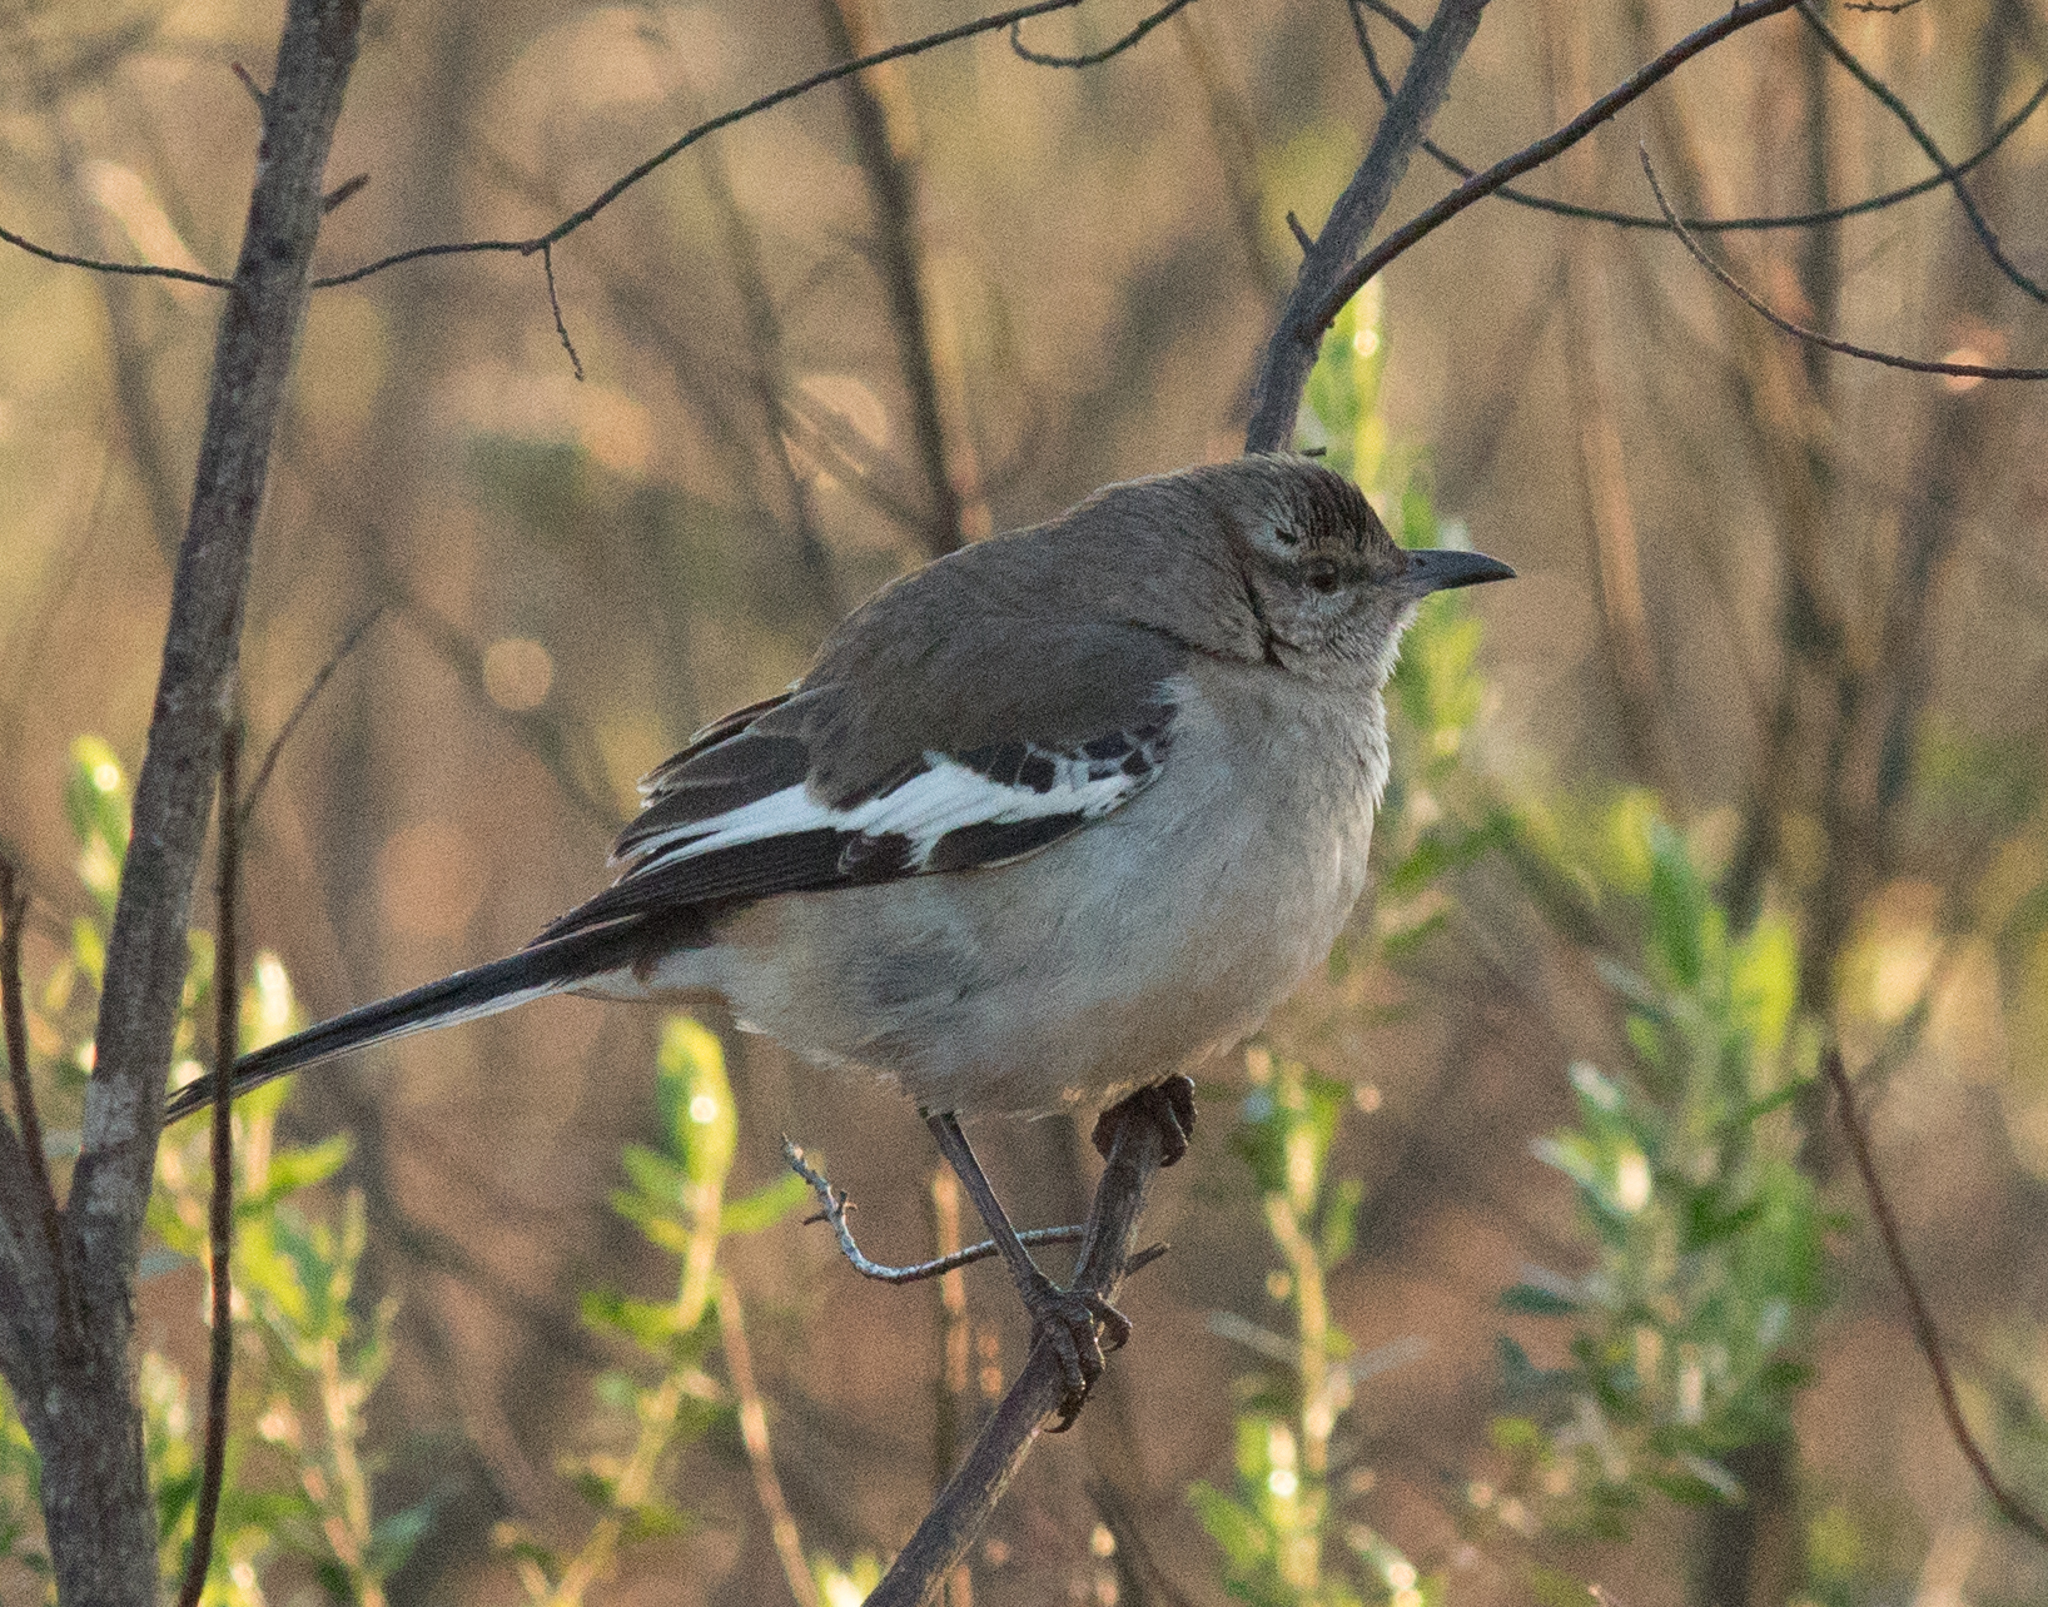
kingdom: Animalia
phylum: Chordata
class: Aves
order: Passeriformes
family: Mimidae
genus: Mimus
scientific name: Mimus triurus
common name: White-banded mockingbird
